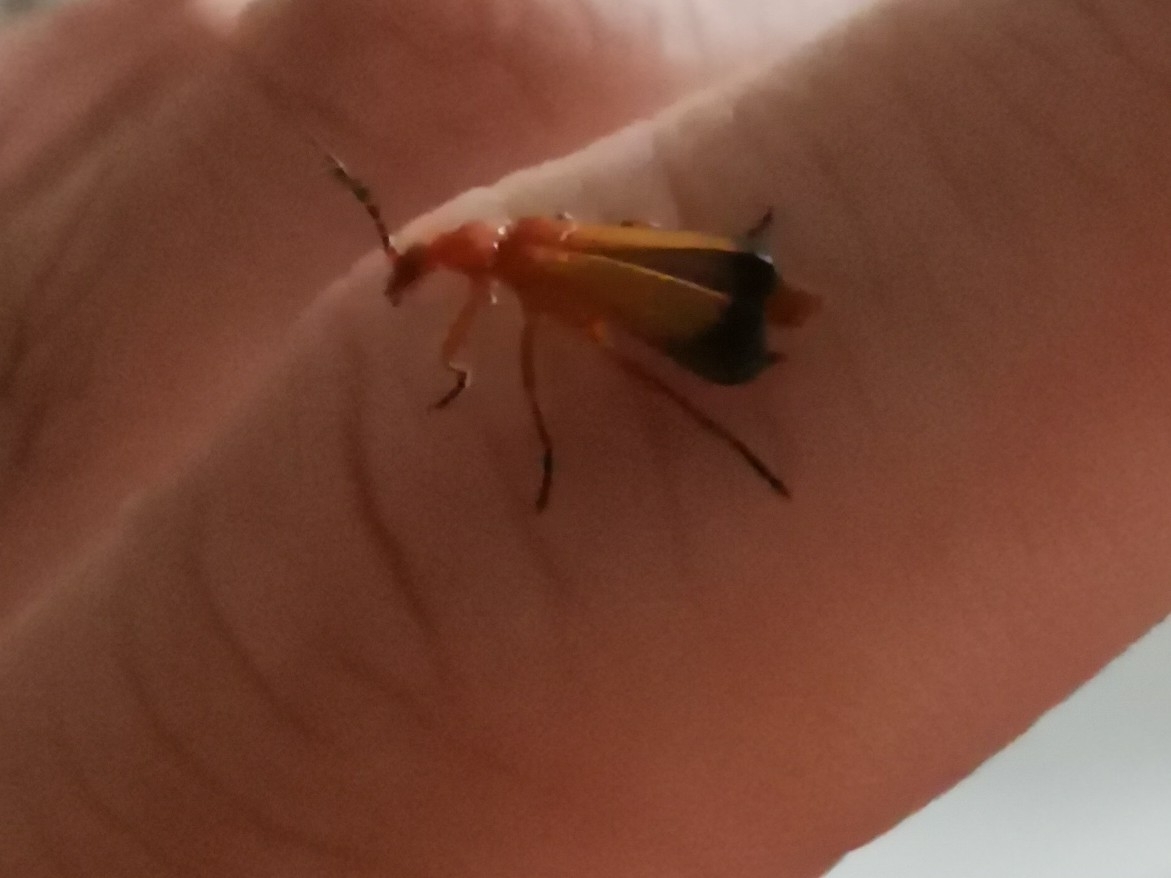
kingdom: Animalia
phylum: Arthropoda
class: Insecta
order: Coleoptera
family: Cantharidae
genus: Rhagonycha
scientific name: Rhagonycha fulva
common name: Common red soldier beetle
